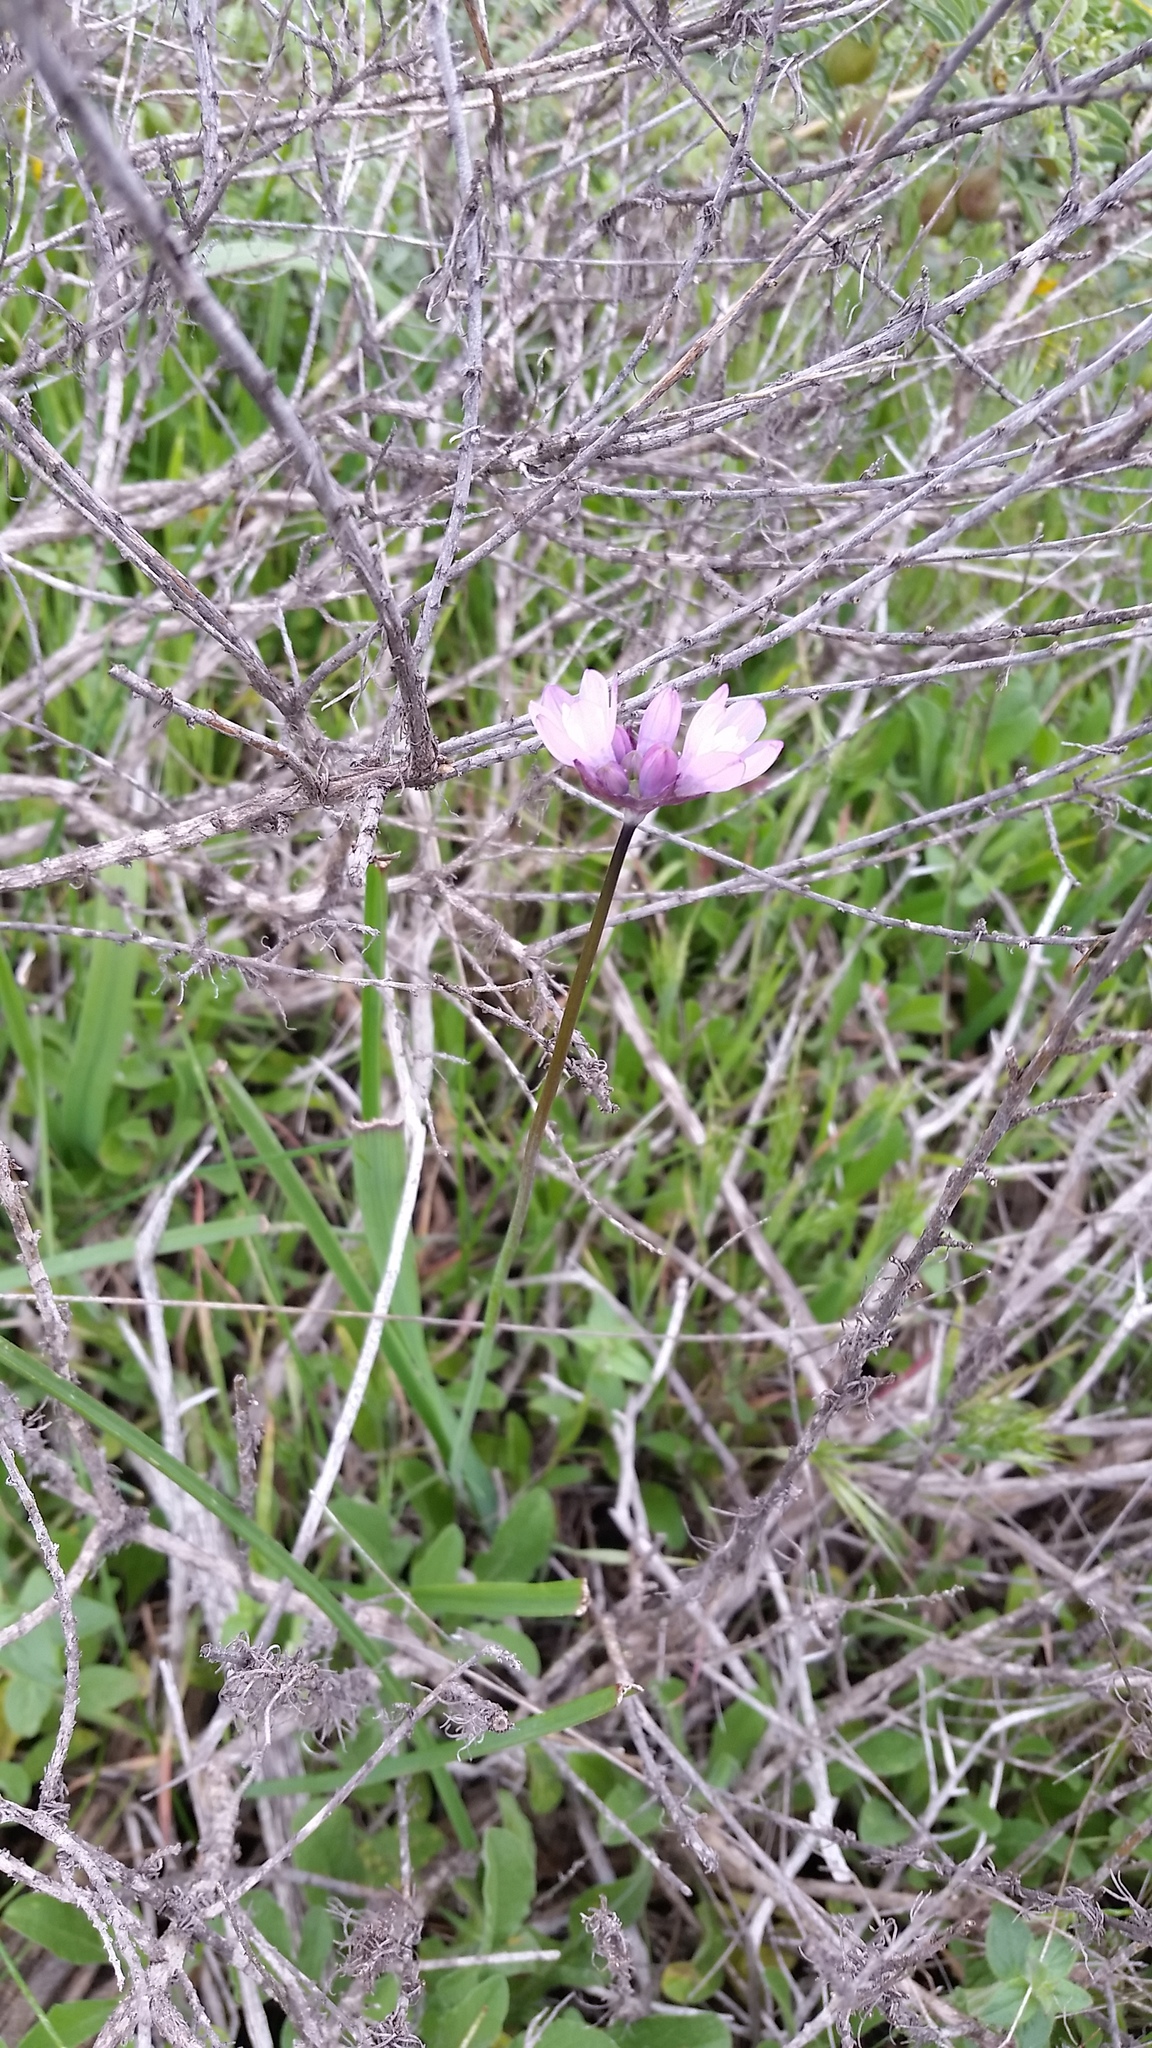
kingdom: Plantae
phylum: Tracheophyta
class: Liliopsida
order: Asparagales
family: Asparagaceae
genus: Dipterostemon
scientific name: Dipterostemon capitatus
